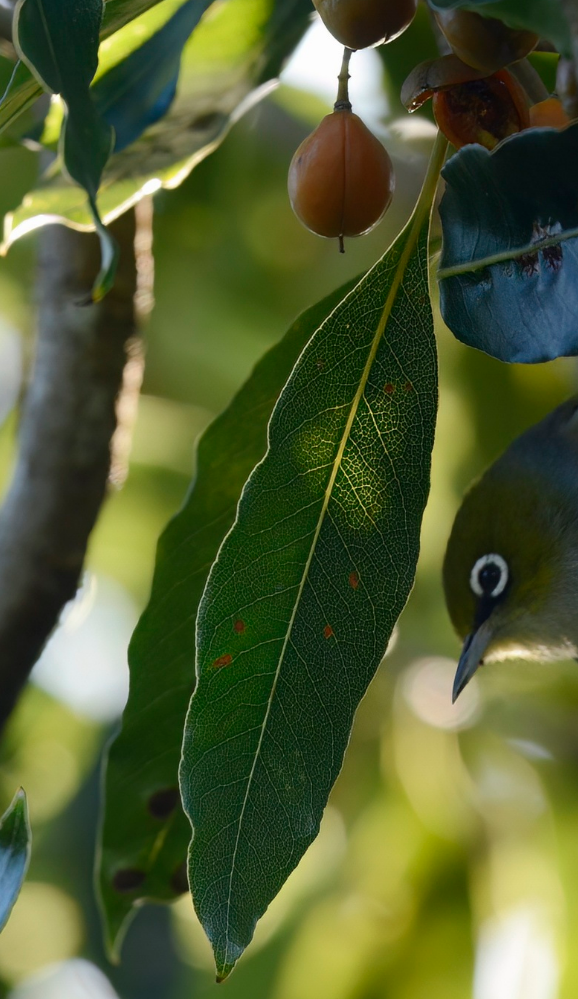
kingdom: Plantae
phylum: Tracheophyta
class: Magnoliopsida
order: Apiales
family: Pittosporaceae
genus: Pittosporum
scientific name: Pittosporum undulatum
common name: Australian cheesewood
